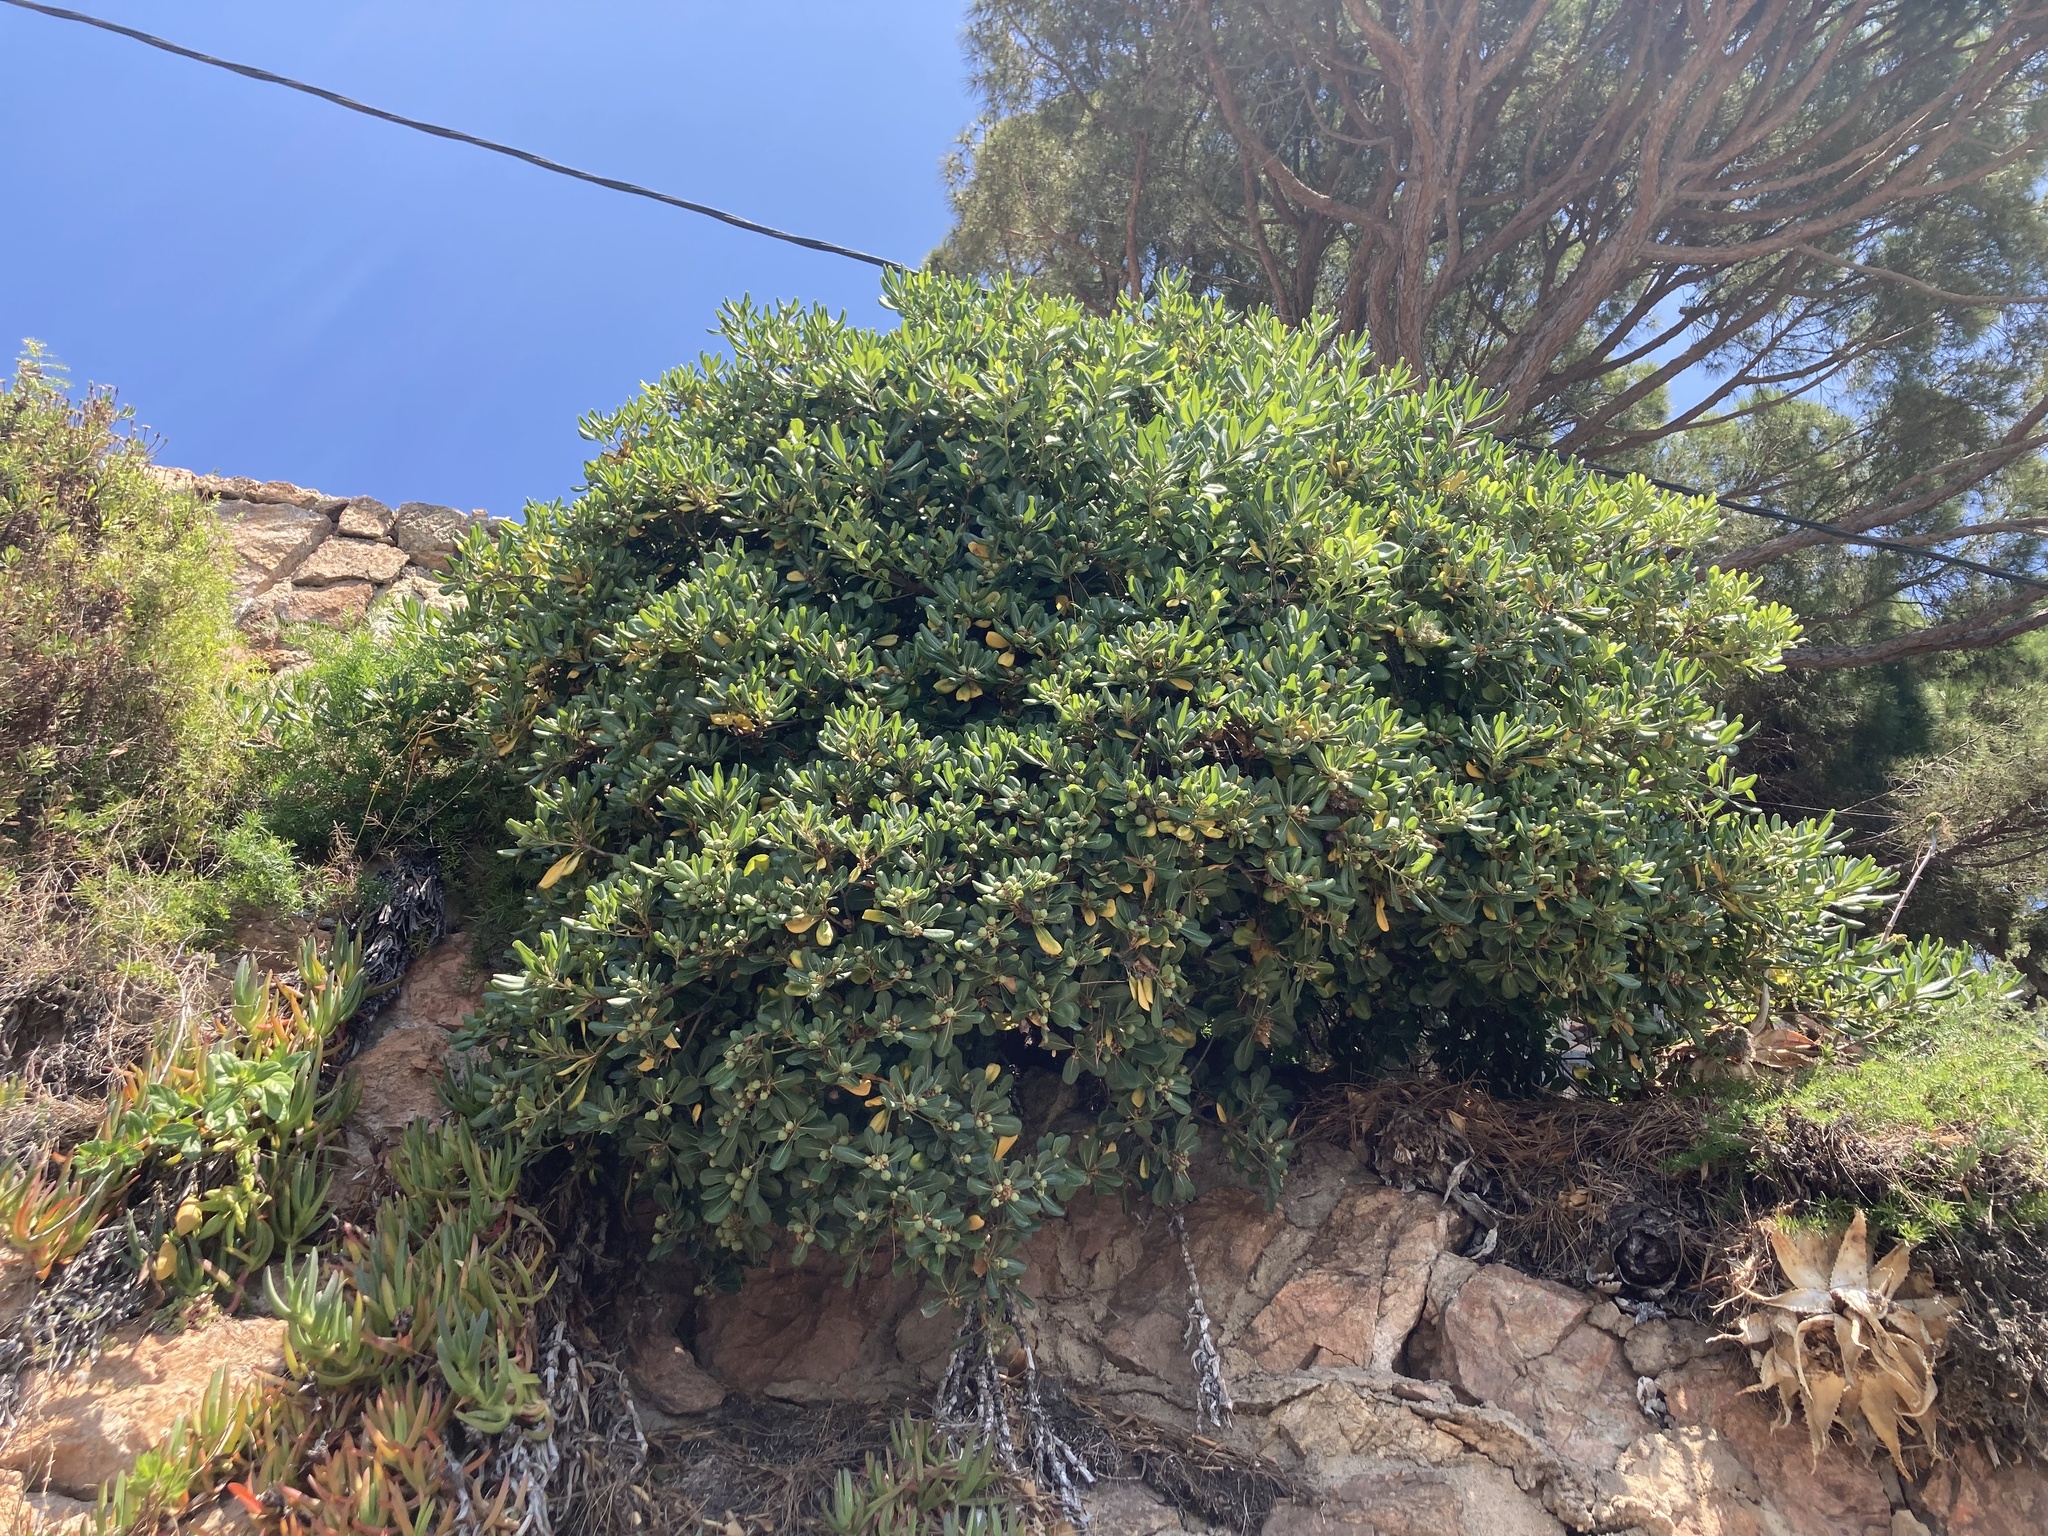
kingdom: Plantae
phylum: Tracheophyta
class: Magnoliopsida
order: Apiales
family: Pittosporaceae
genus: Pittosporum
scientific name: Pittosporum tobira
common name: Japanese cheesewood
